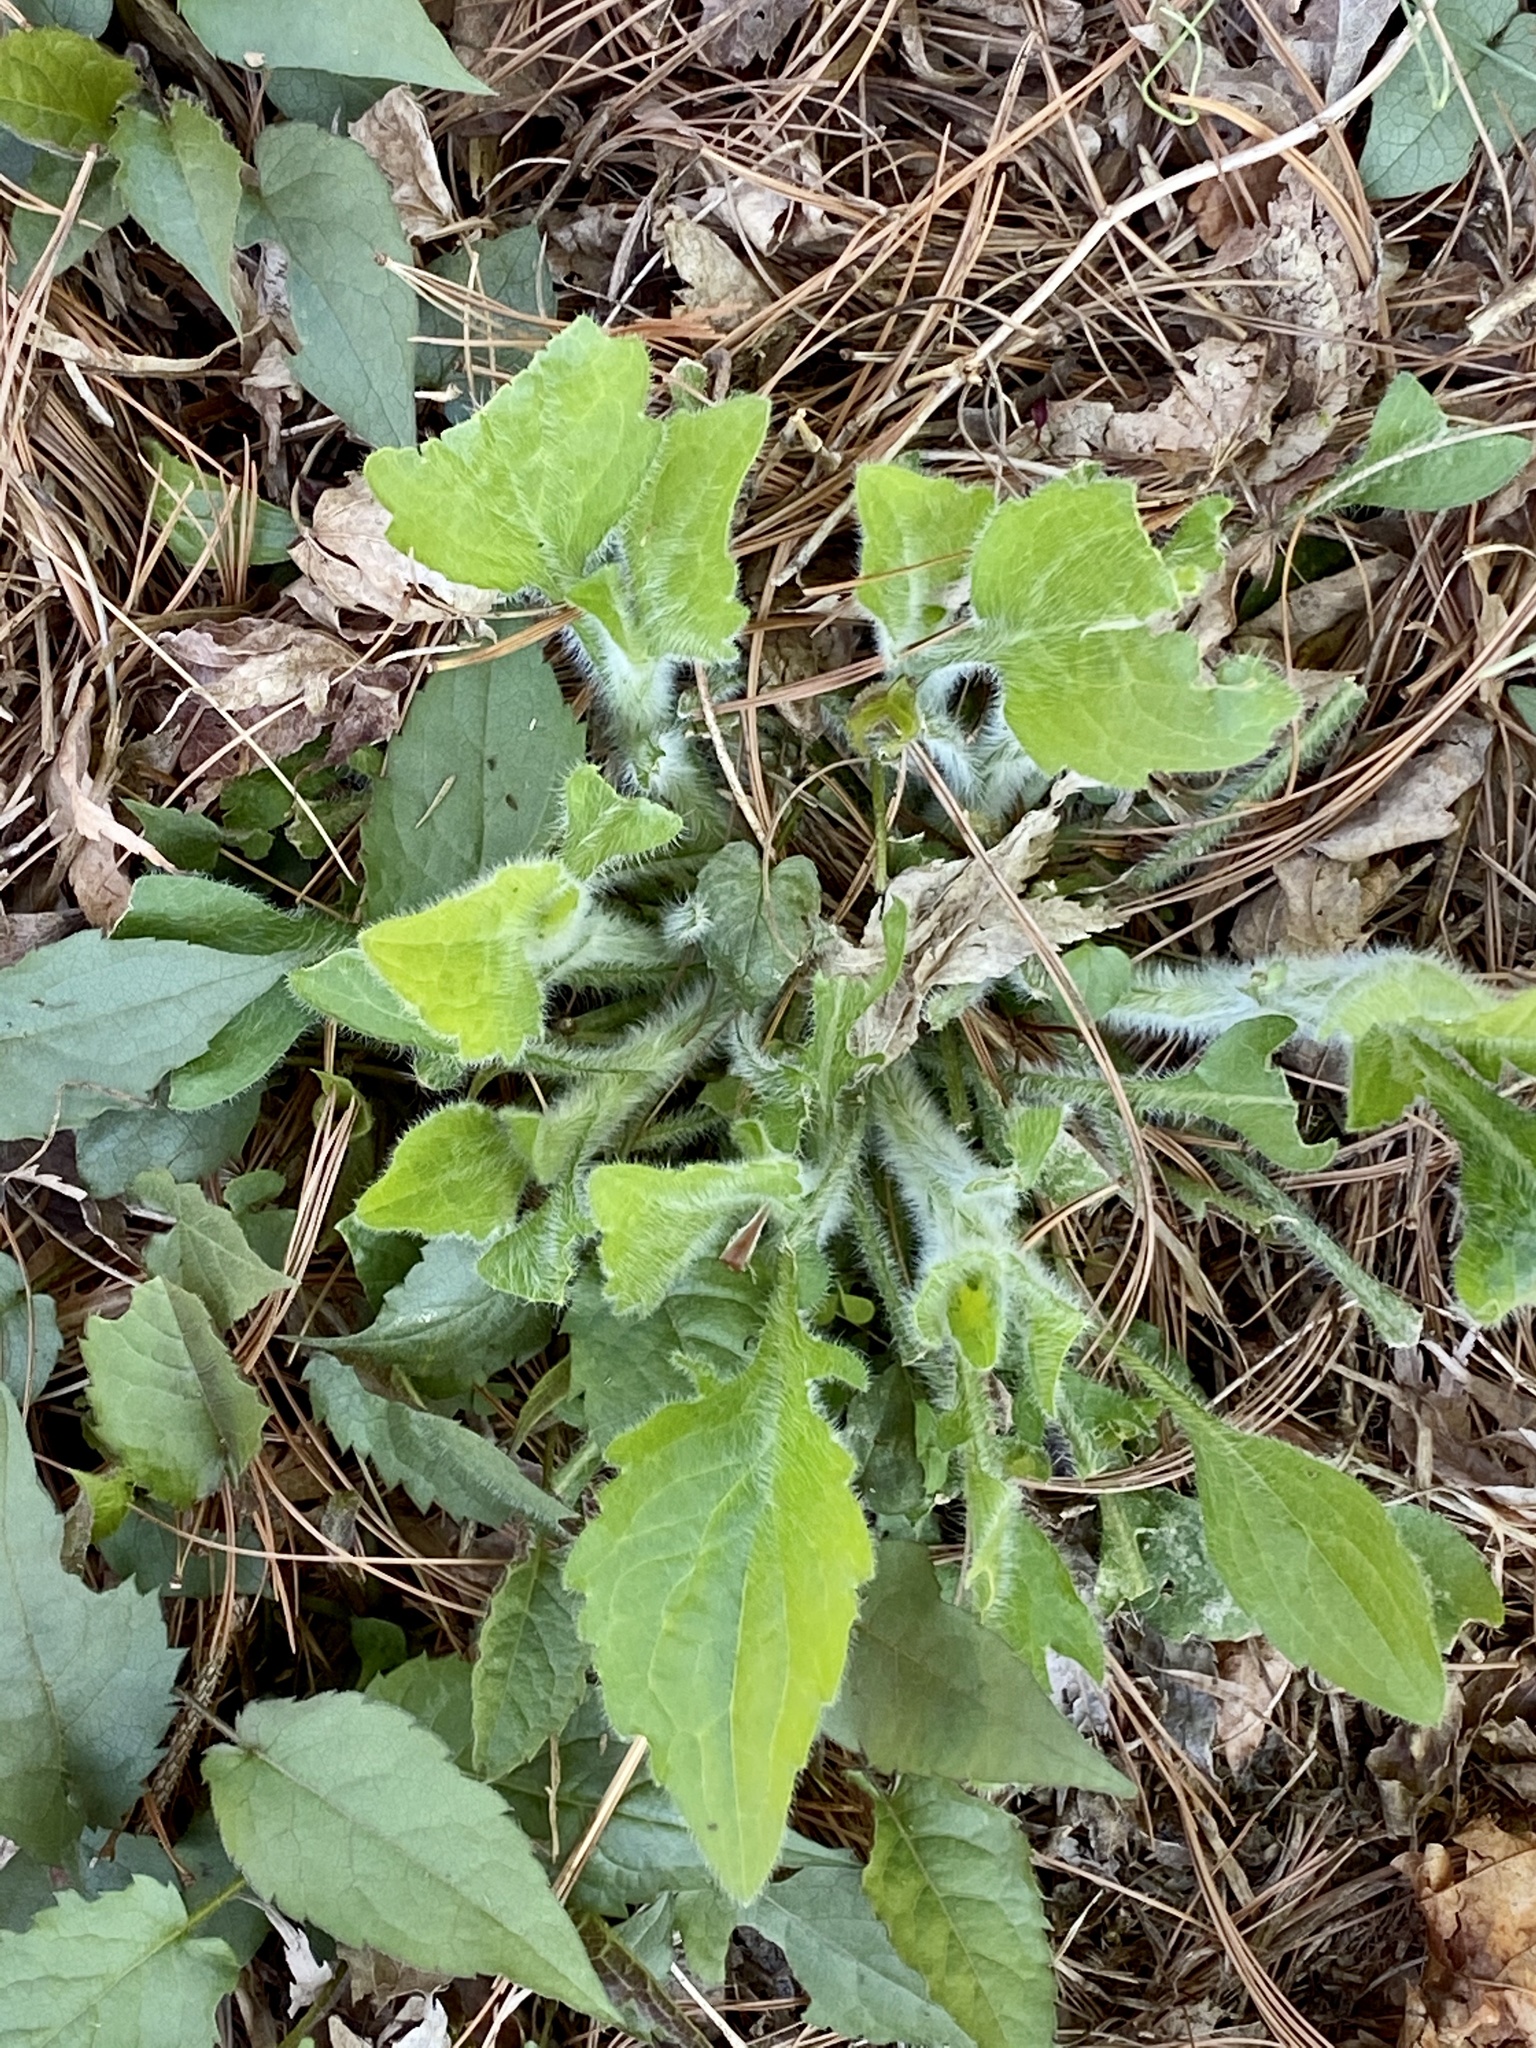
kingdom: Plantae
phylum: Tracheophyta
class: Magnoliopsida
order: Asterales
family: Asteraceae
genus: Erigeron
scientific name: Erigeron annuus
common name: Tall fleabane
